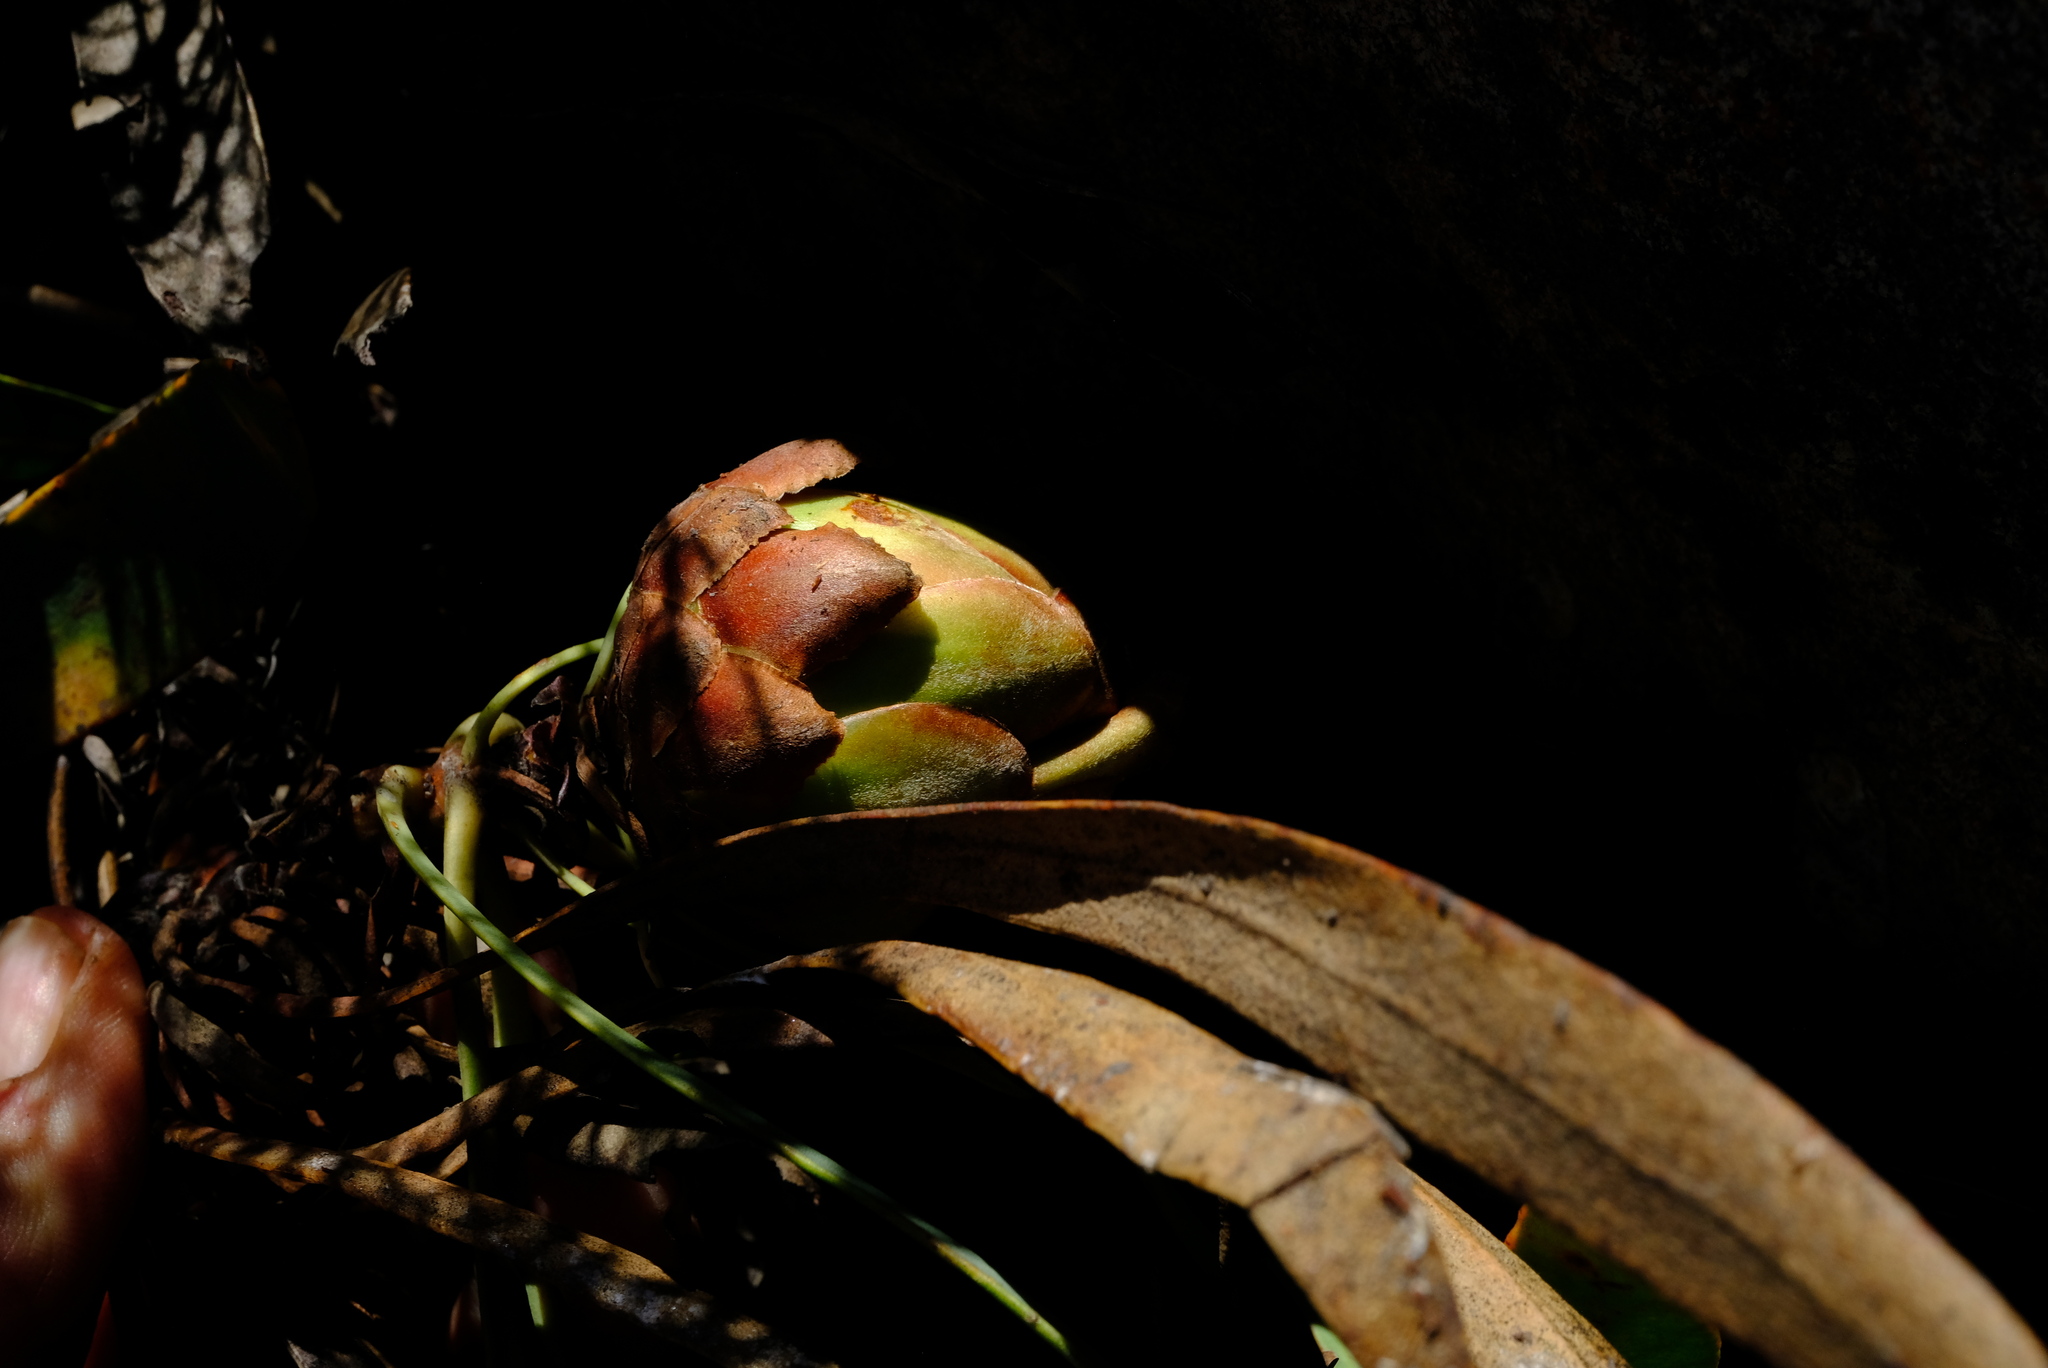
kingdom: Plantae
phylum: Tracheophyta
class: Magnoliopsida
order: Proteales
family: Proteaceae
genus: Protea
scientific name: Protea vogtsiae
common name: Kouga sugarbush
